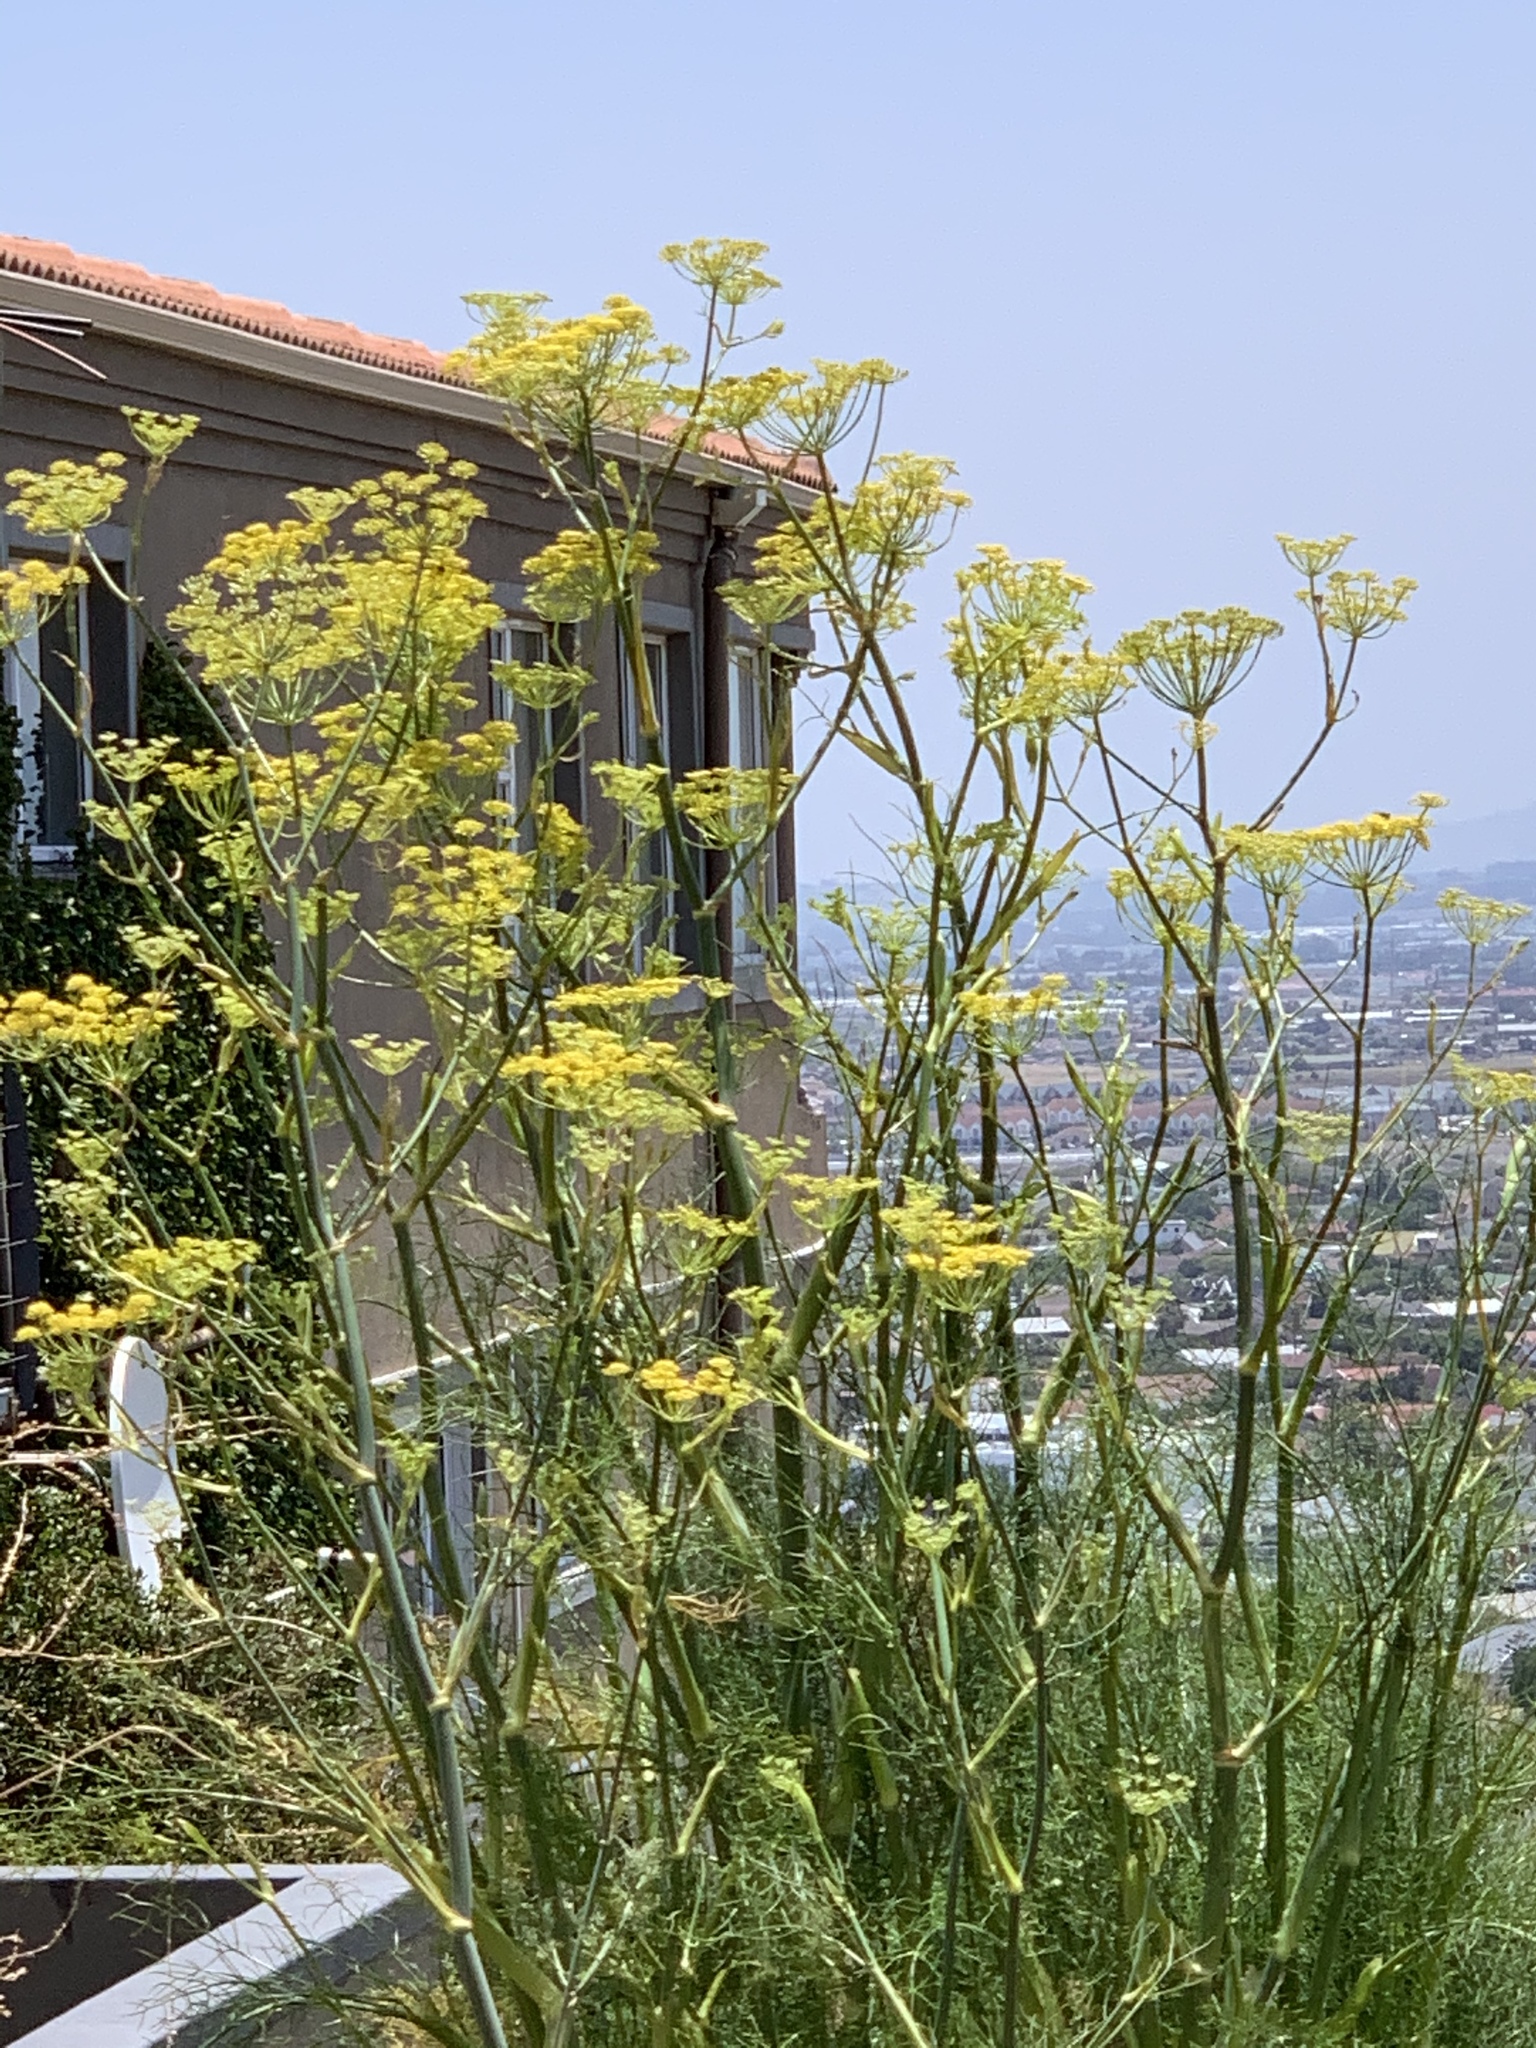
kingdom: Plantae
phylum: Tracheophyta
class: Magnoliopsida
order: Apiales
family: Apiaceae
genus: Foeniculum
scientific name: Foeniculum vulgare
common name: Fennel
